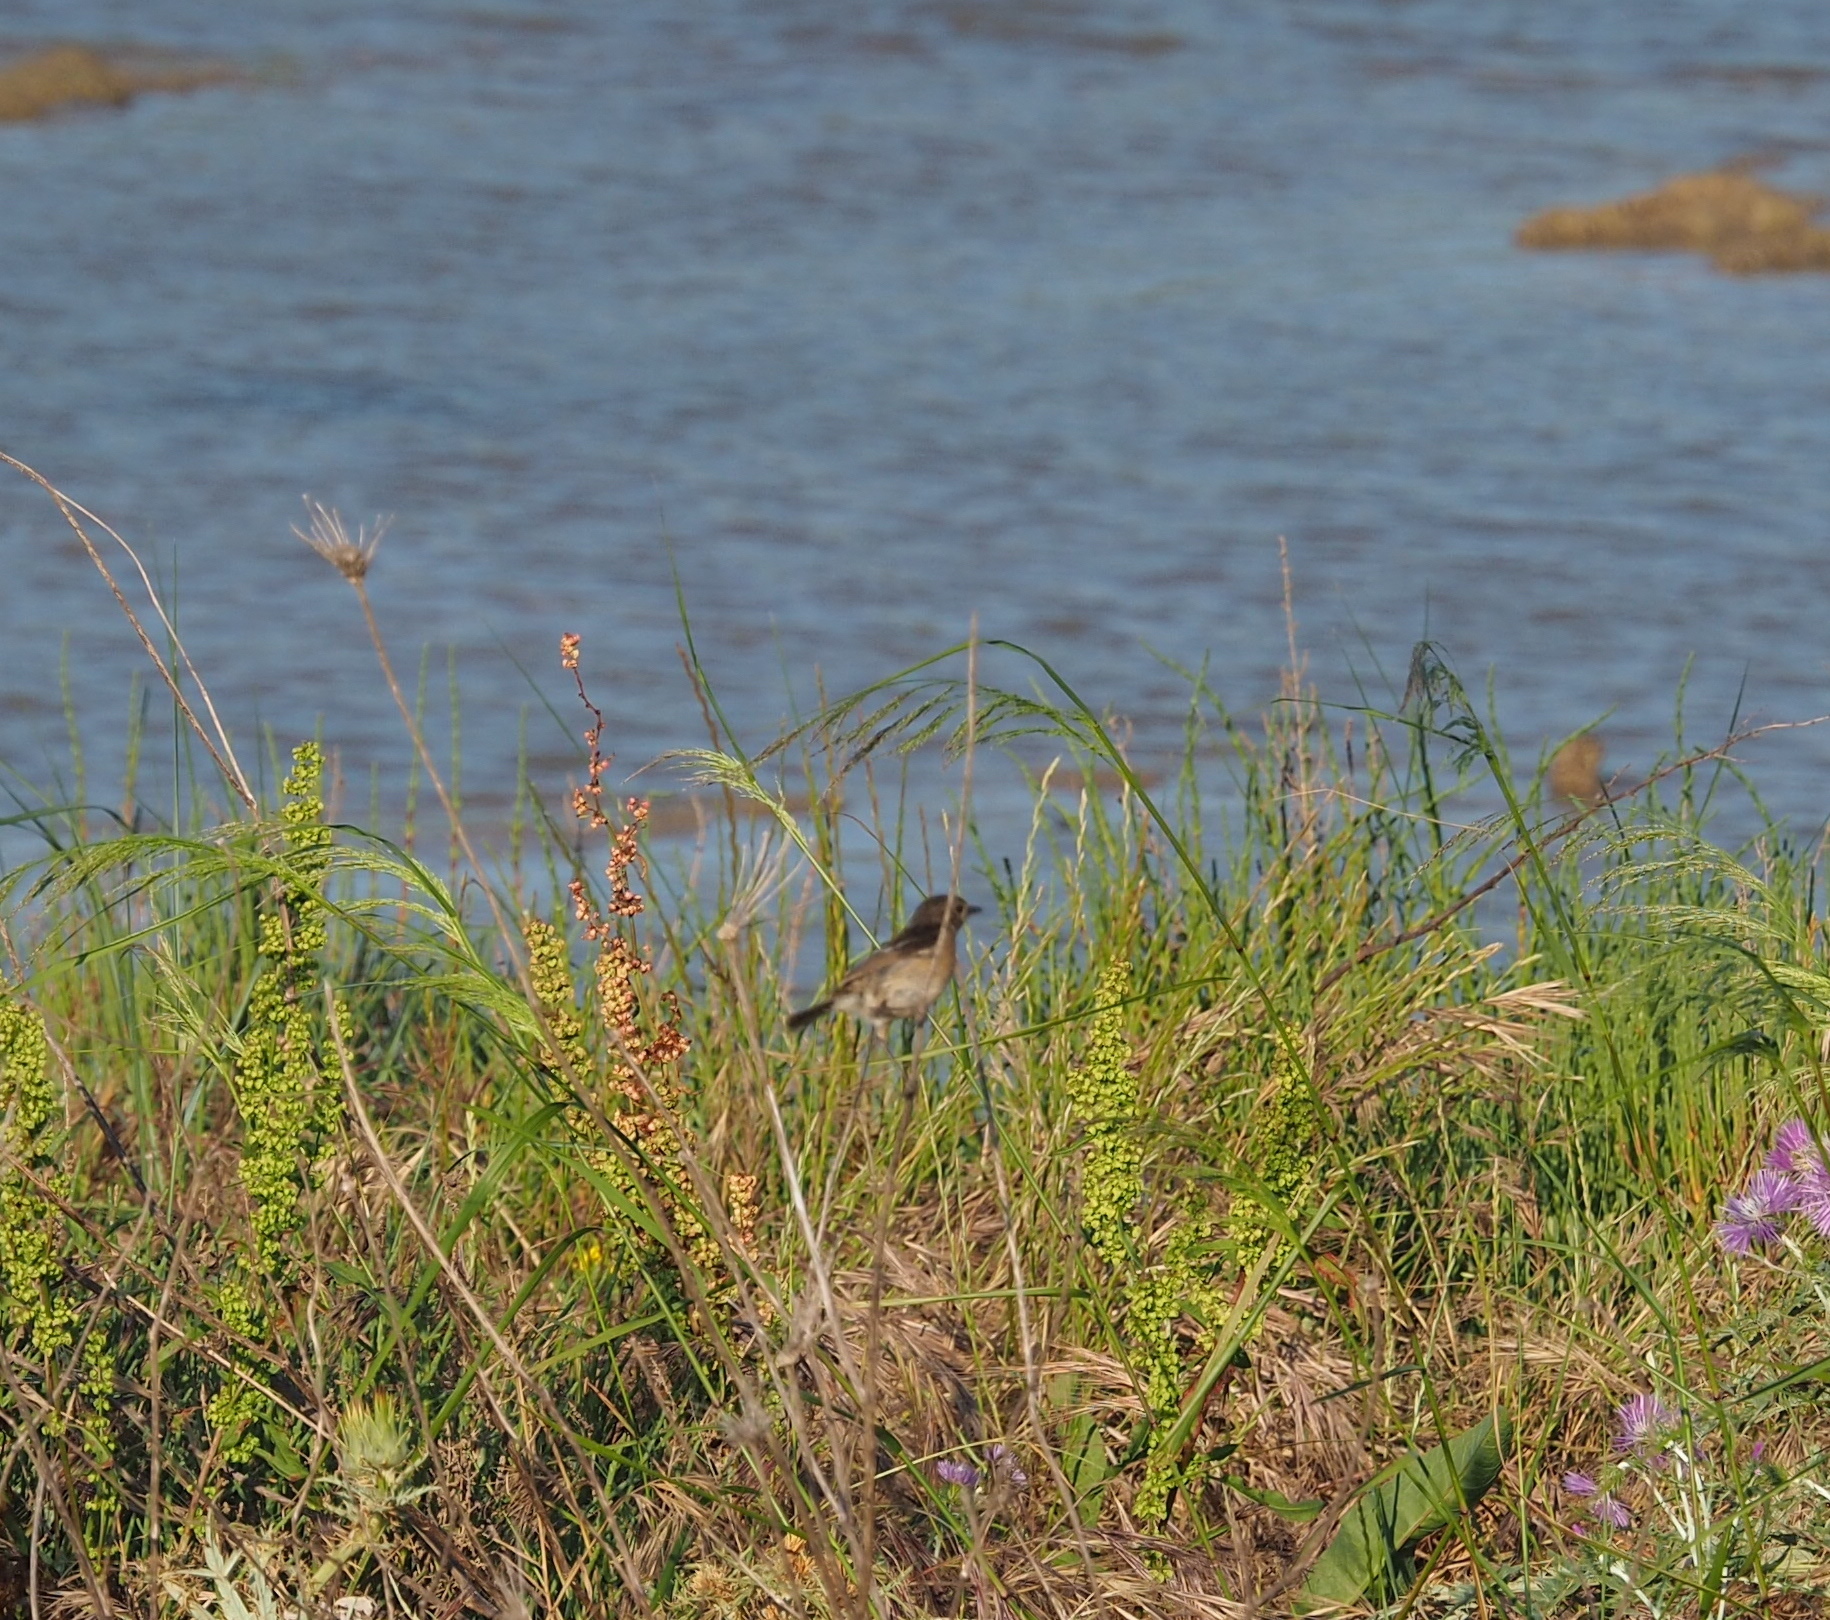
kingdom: Animalia
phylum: Chordata
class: Aves
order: Passeriformes
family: Muscicapidae
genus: Saxicola
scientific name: Saxicola rubicola
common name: European stonechat
